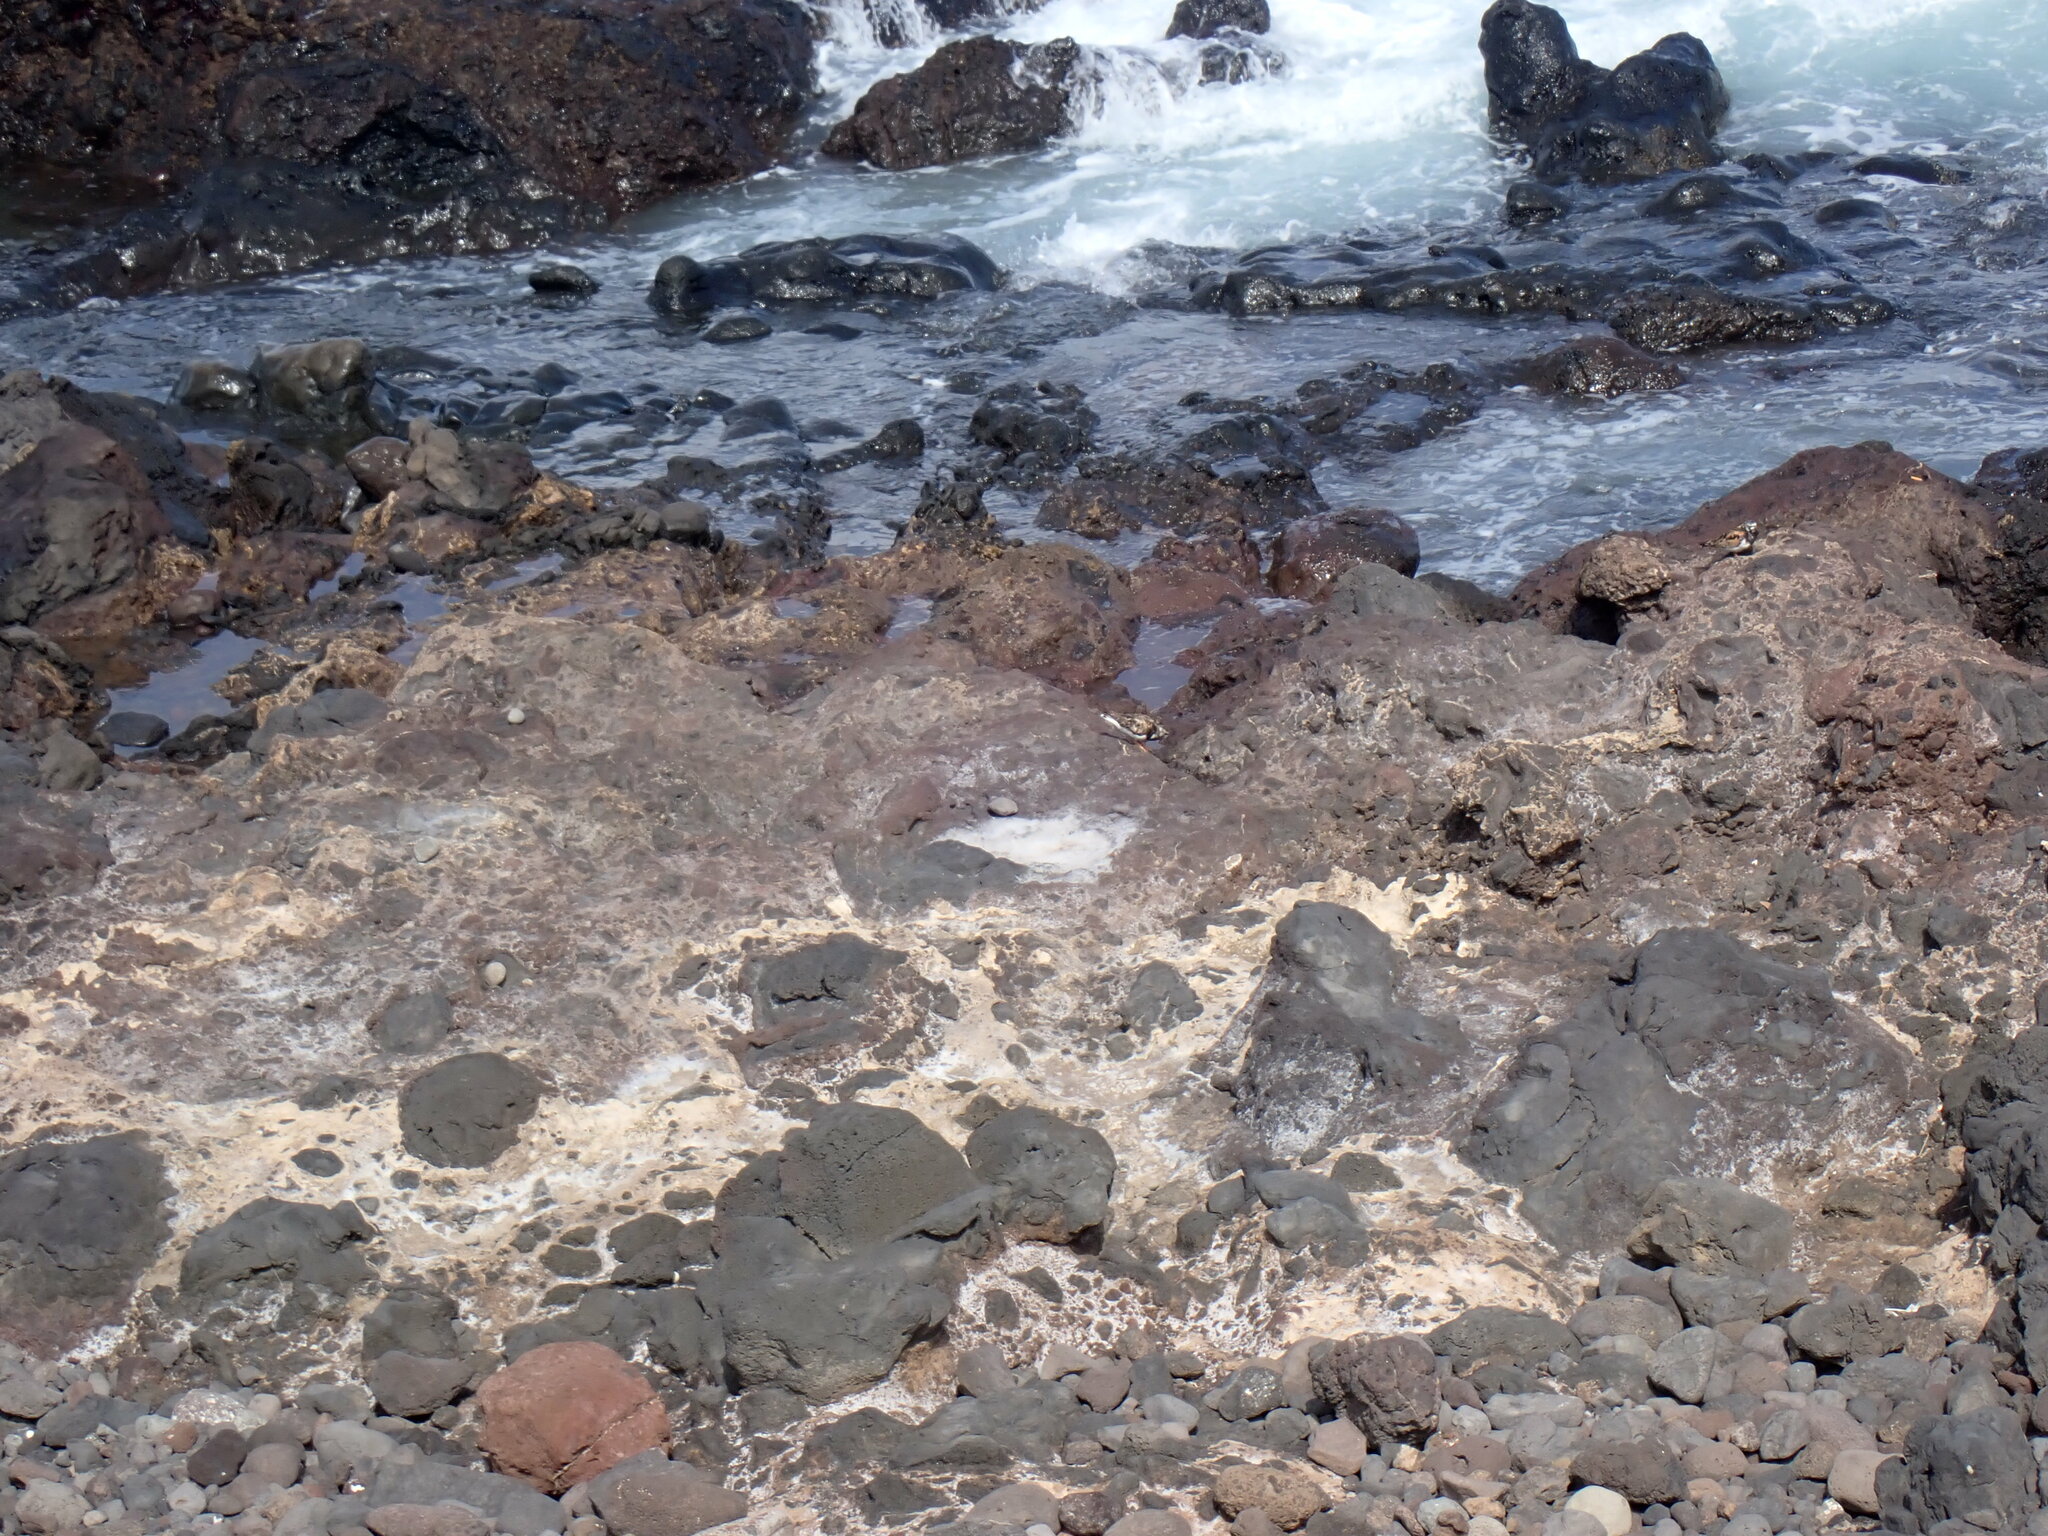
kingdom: Animalia
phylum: Chordata
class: Aves
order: Charadriiformes
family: Scolopacidae
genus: Arenaria
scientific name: Arenaria interpres
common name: Ruddy turnstone
